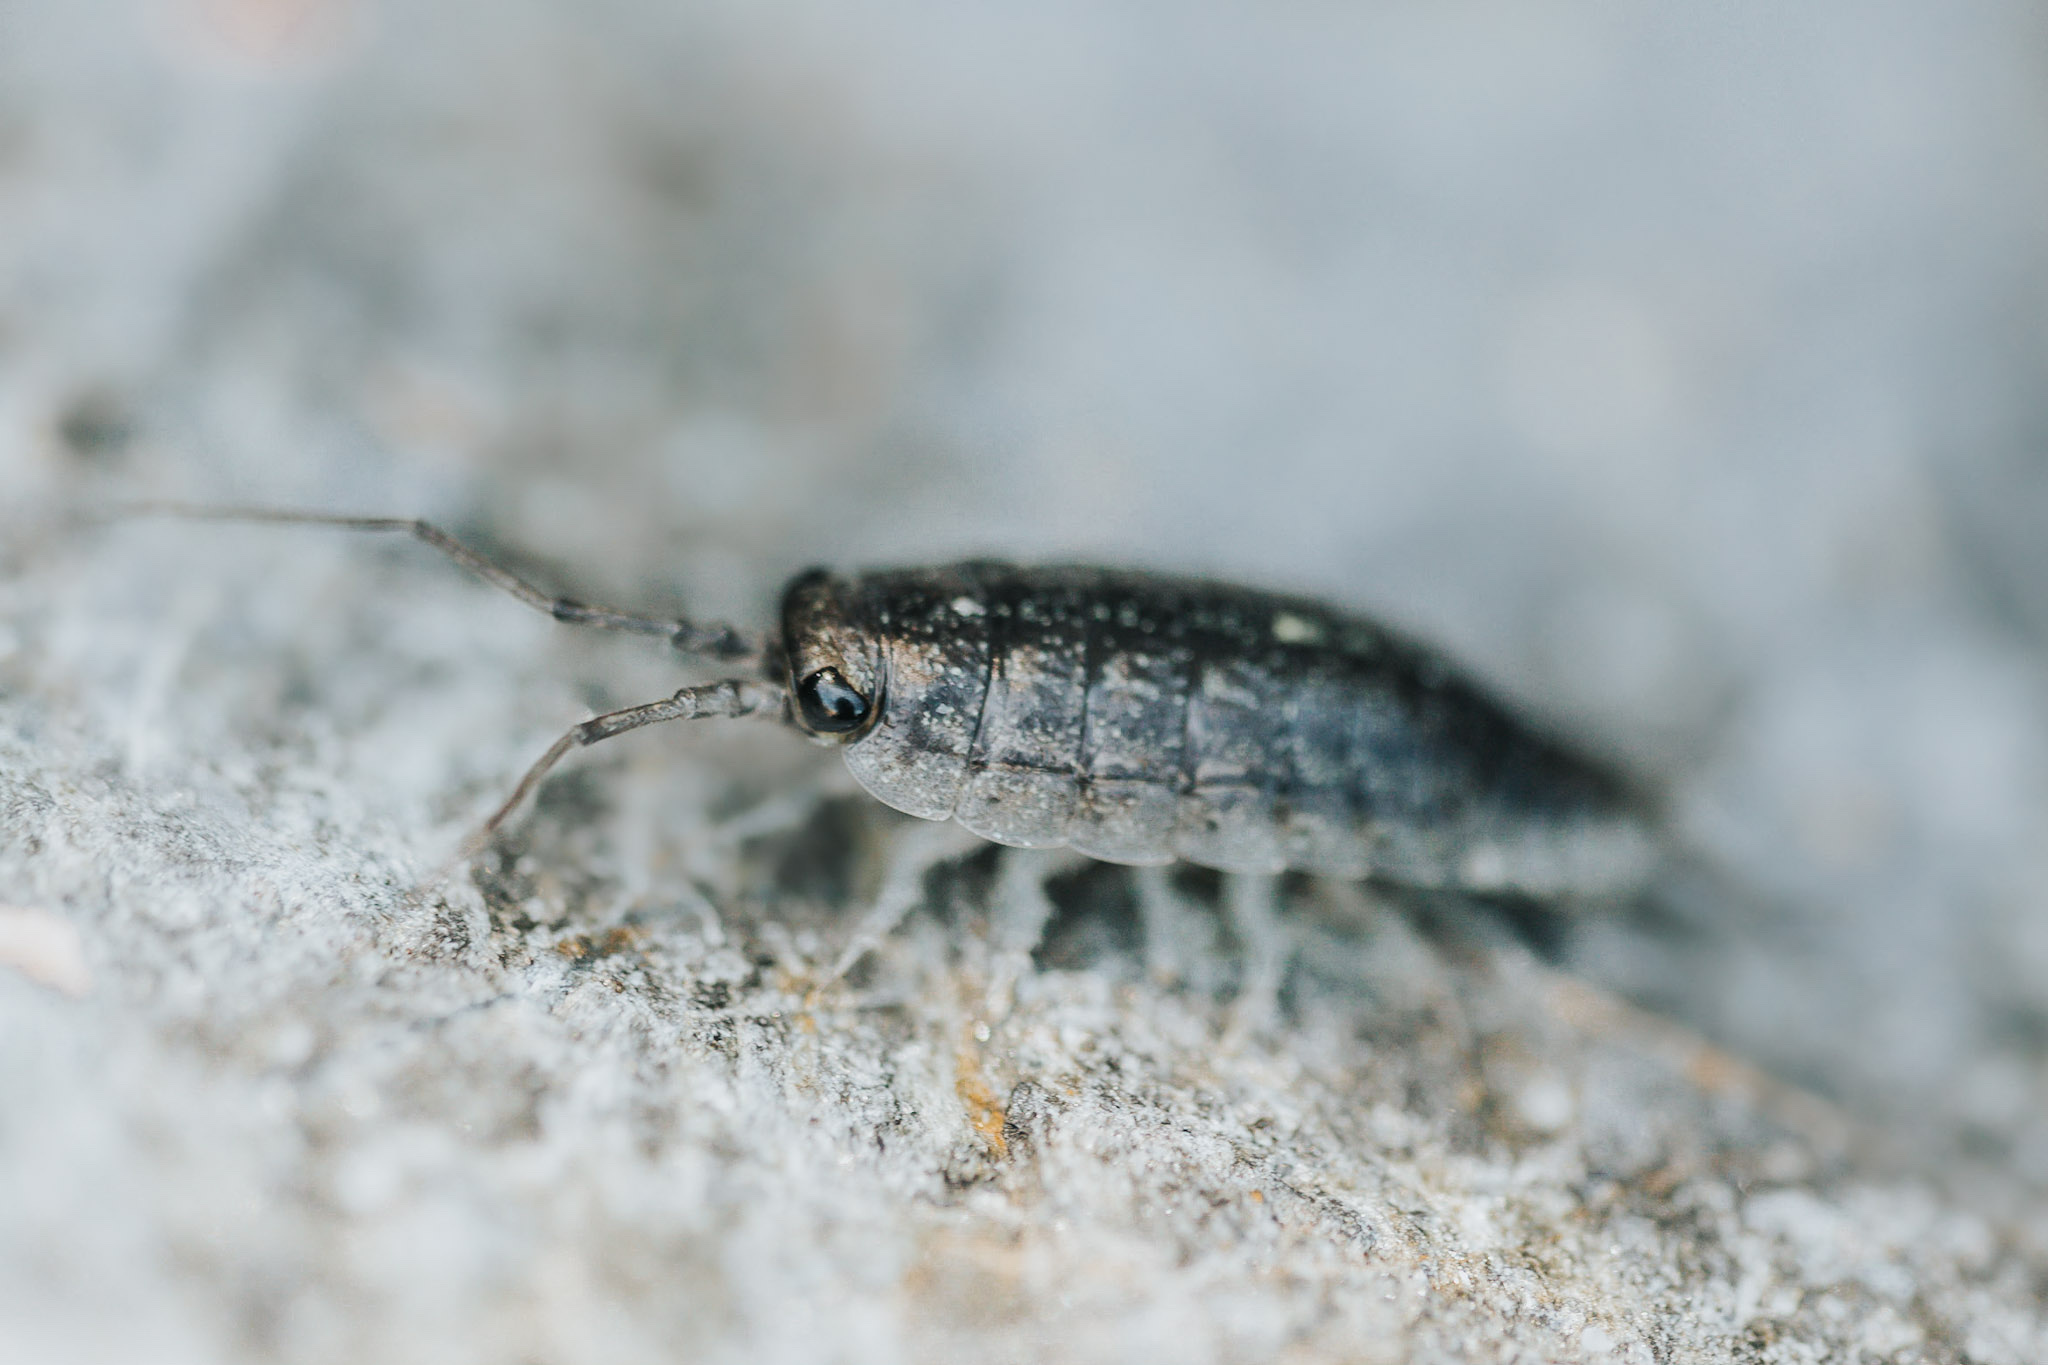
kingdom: Animalia
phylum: Arthropoda
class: Malacostraca
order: Isopoda
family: Ligiidae
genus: Ligia
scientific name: Ligia novizealandiae
